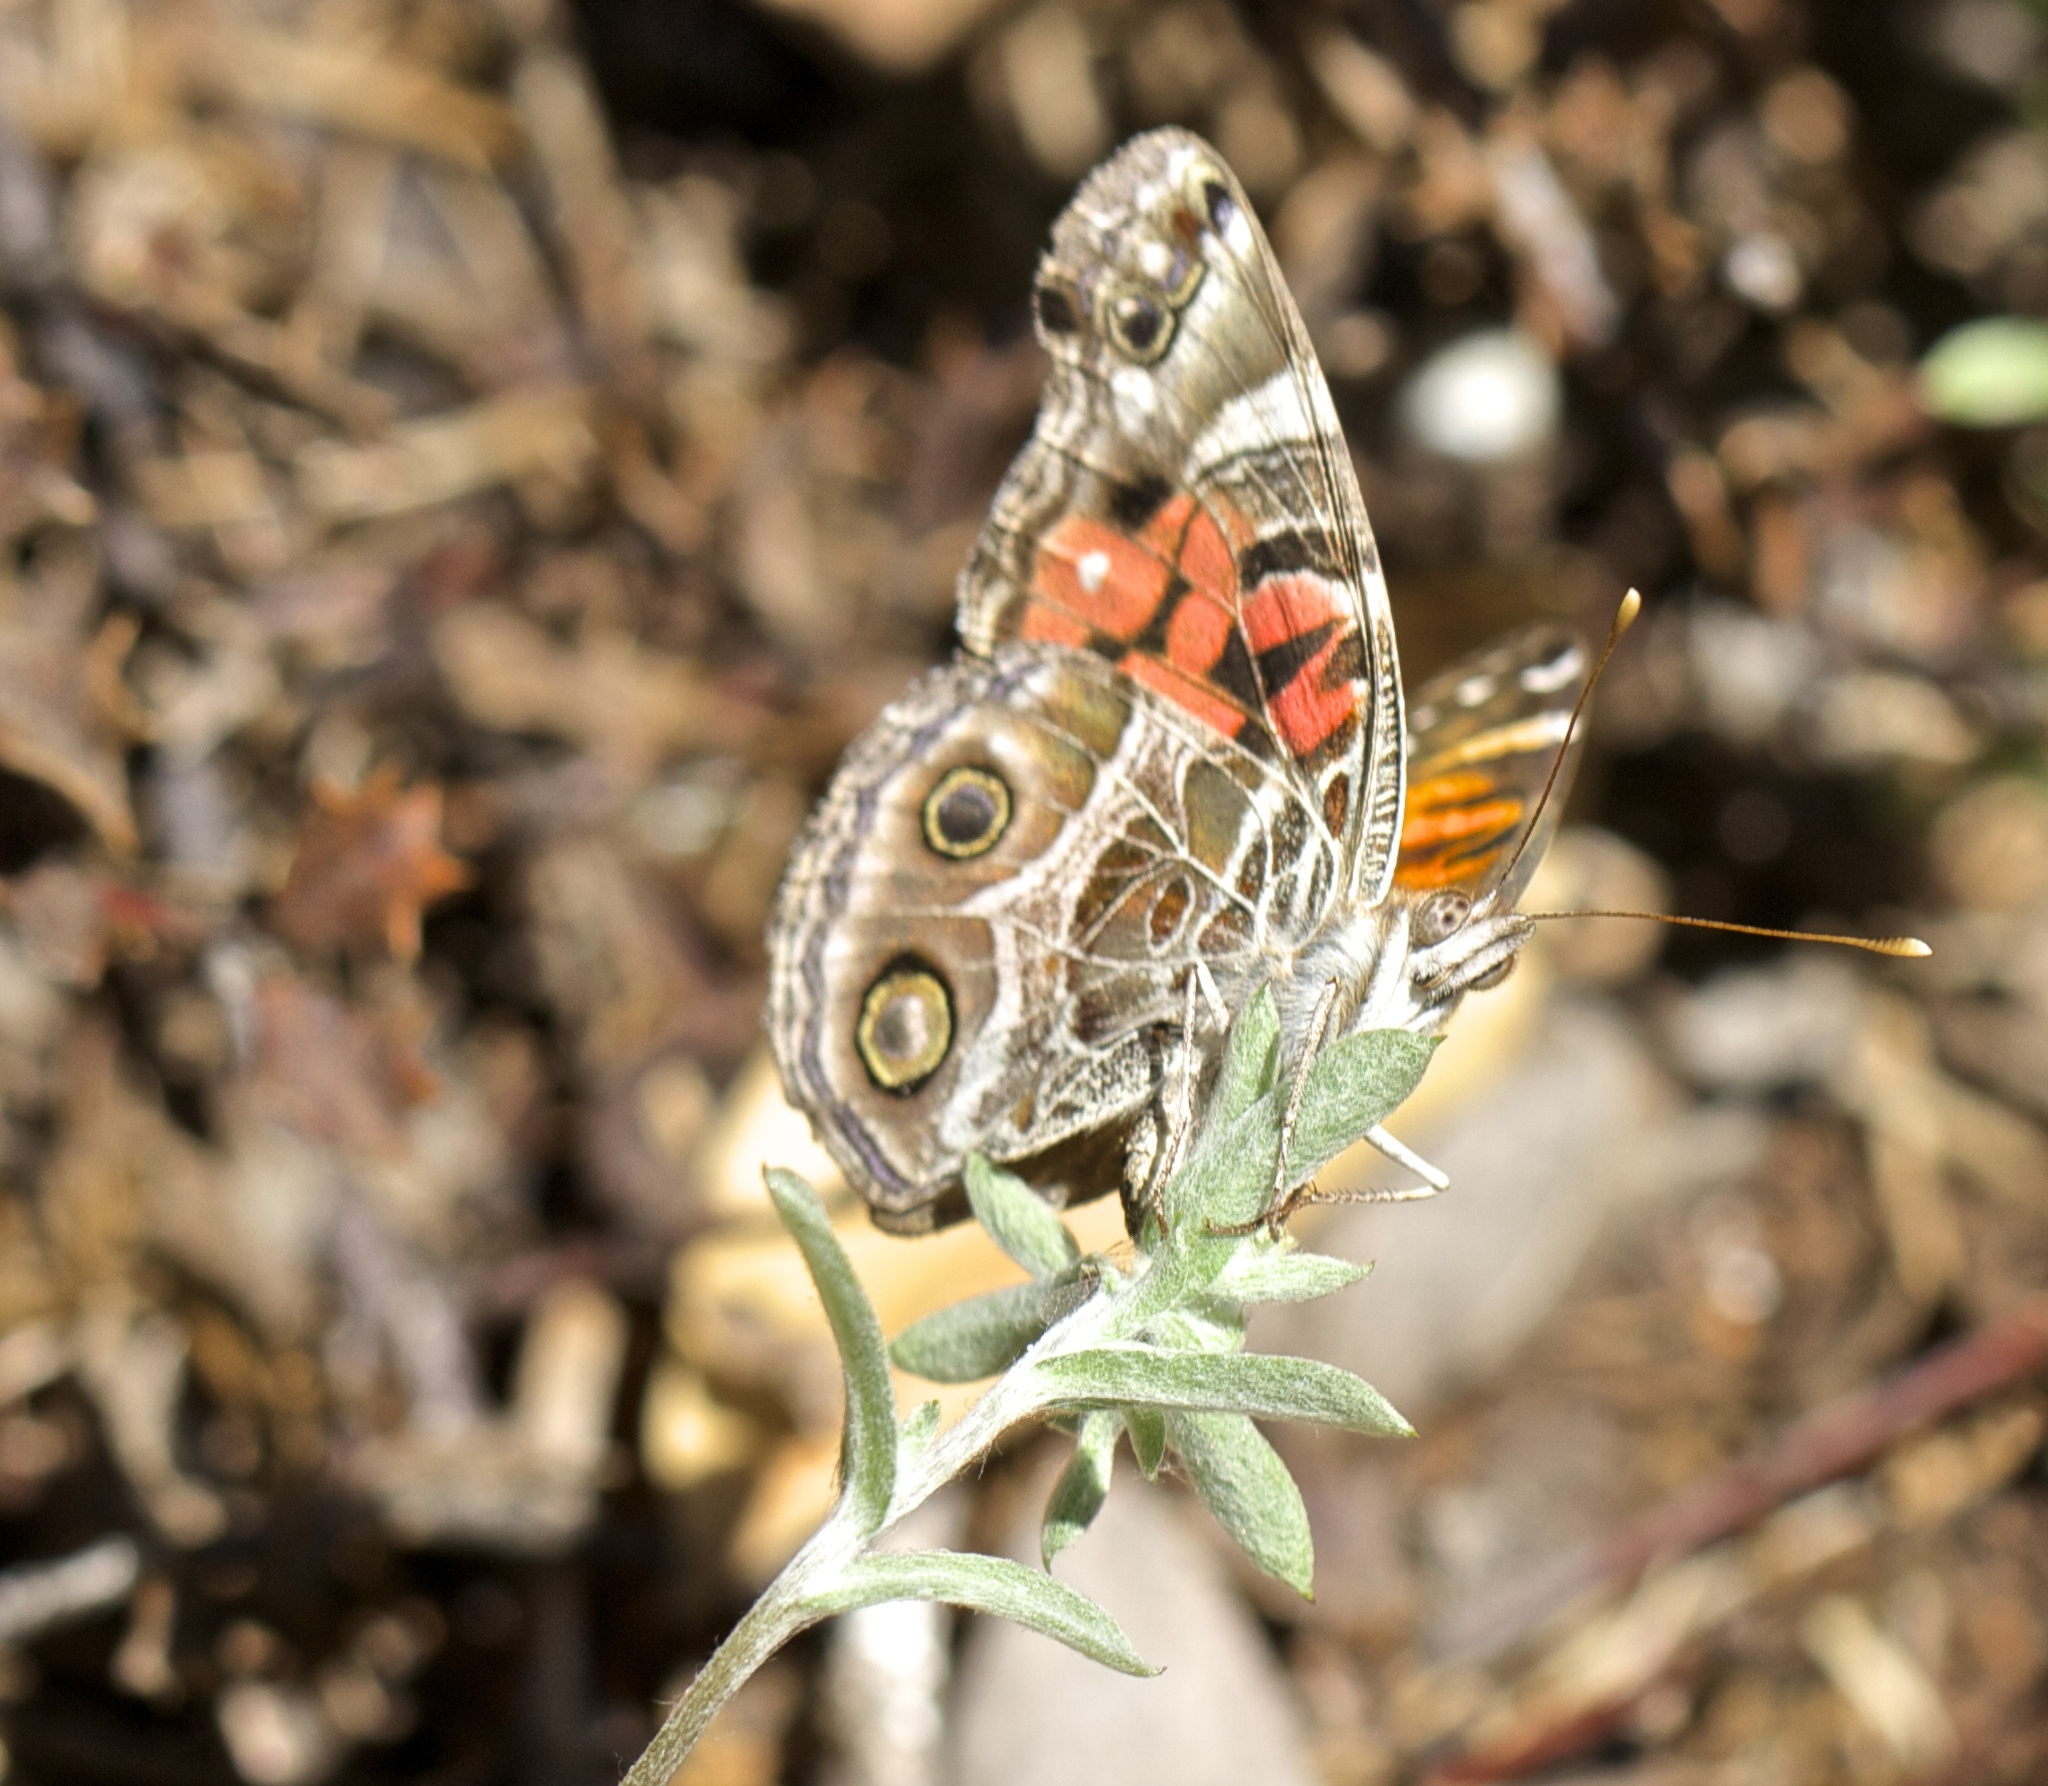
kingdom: Animalia
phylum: Arthropoda
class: Insecta
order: Lepidoptera
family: Nymphalidae
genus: Vanessa
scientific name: Vanessa virginiensis
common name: American lady
